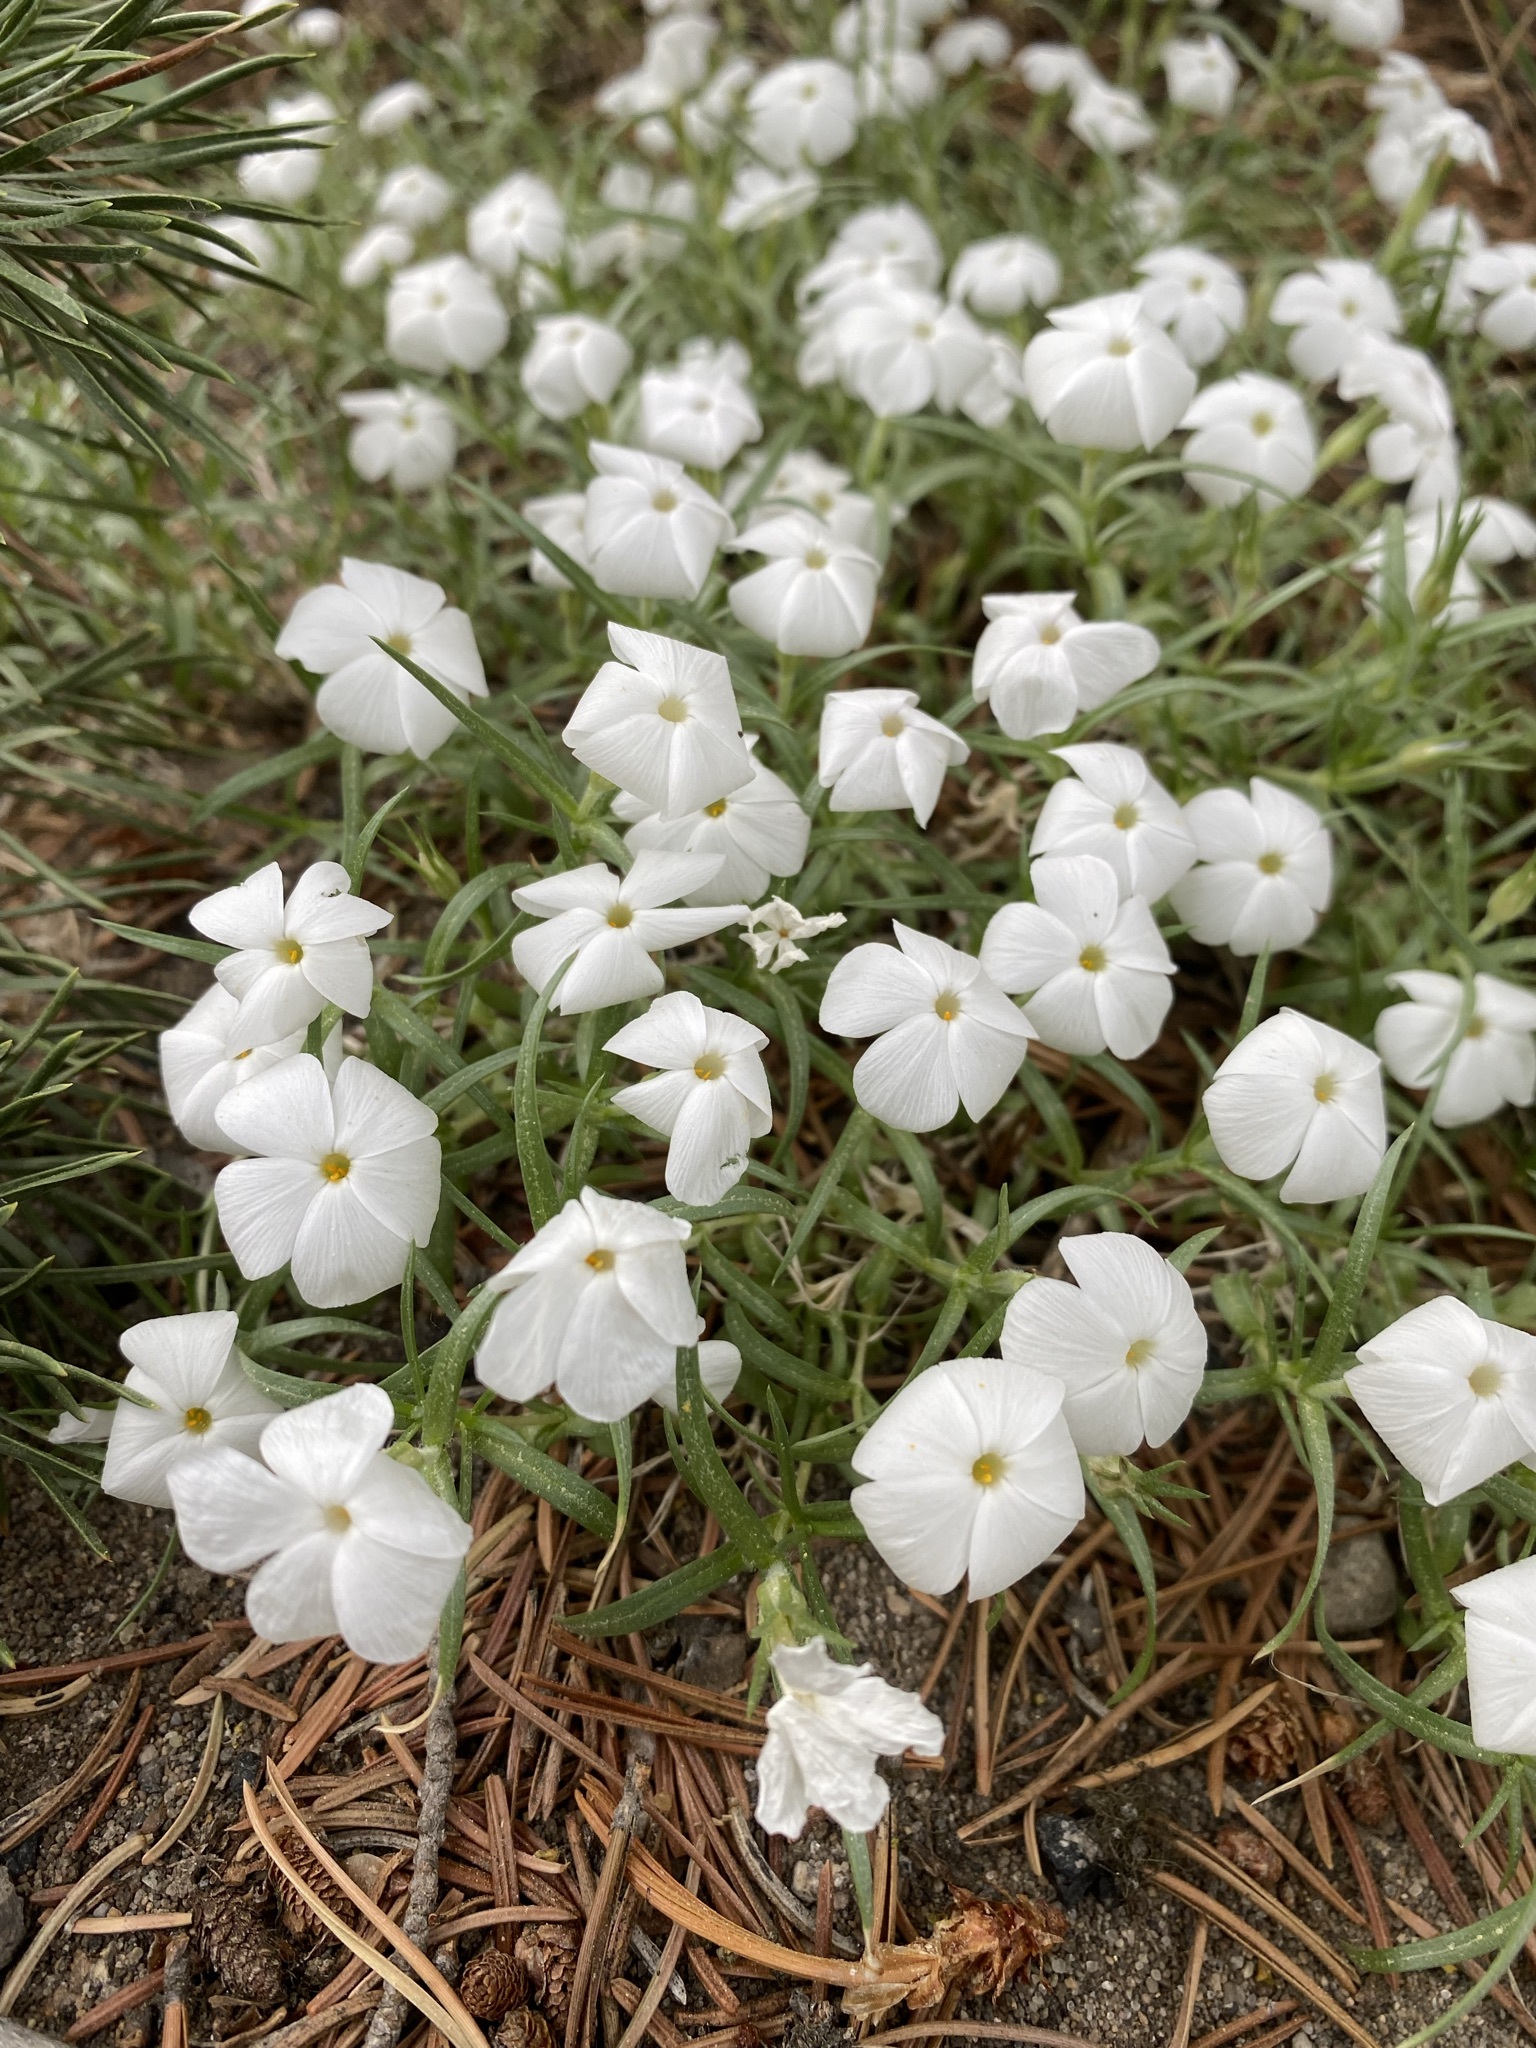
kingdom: Plantae
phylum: Tracheophyta
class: Magnoliopsida
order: Ericales
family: Polemoniaceae
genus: Phlox
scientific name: Phlox multiflora
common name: Rocky mountain phlox
